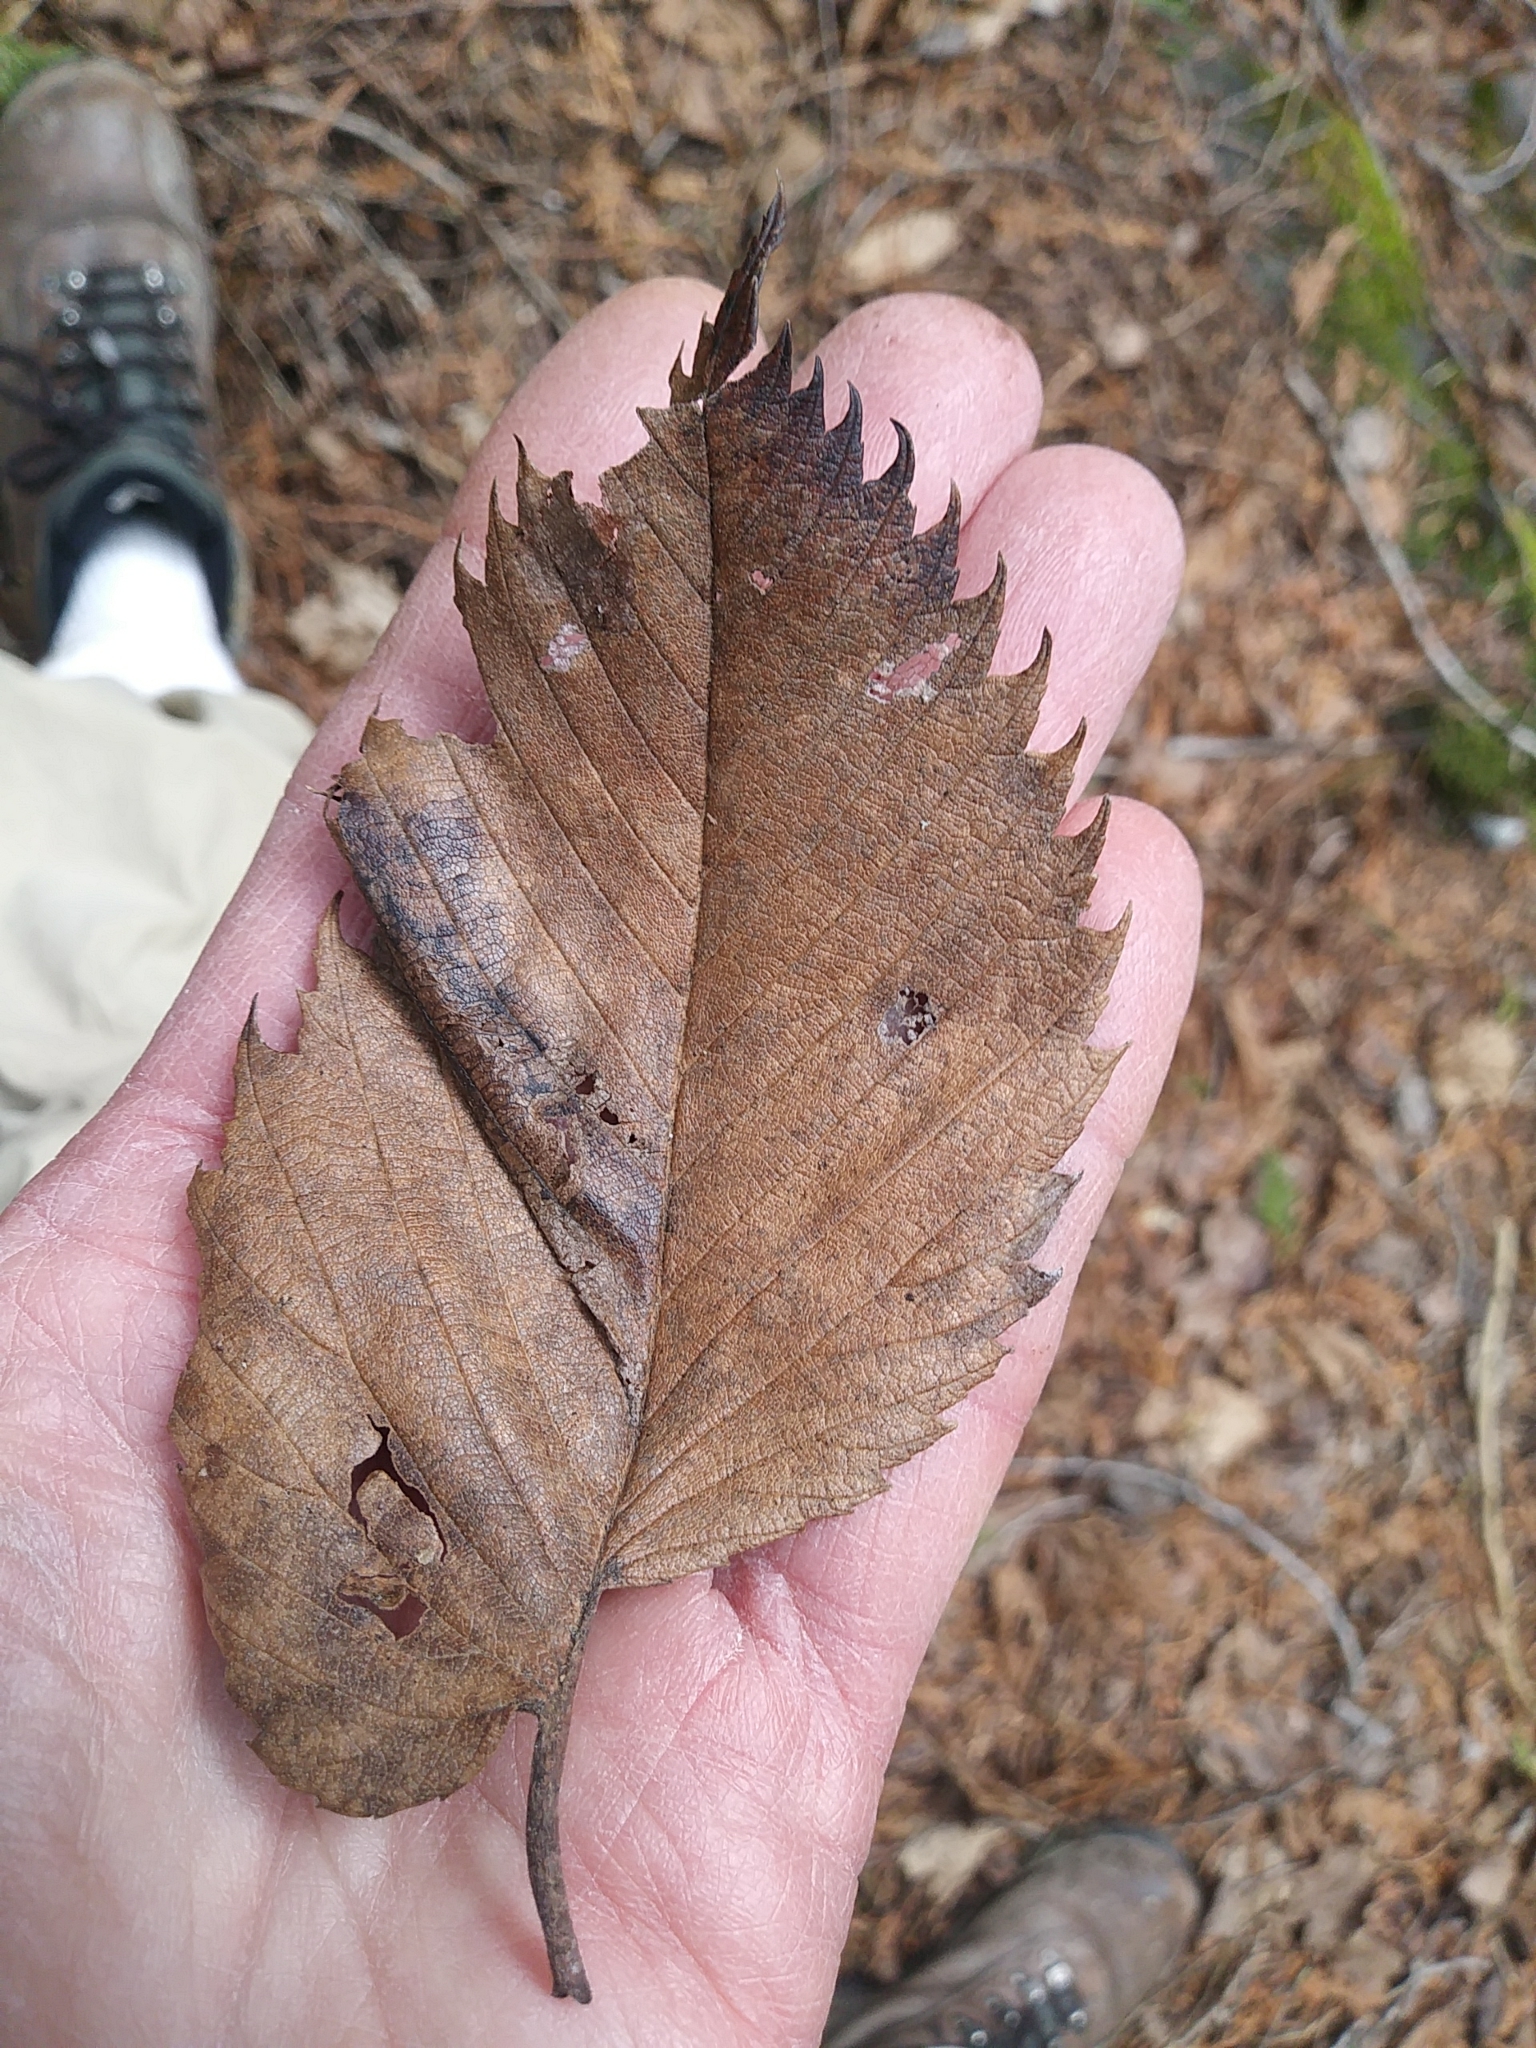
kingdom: Plantae
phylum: Tracheophyta
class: Magnoliopsida
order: Rosales
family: Ulmaceae
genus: Ulmus
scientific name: Ulmus americana
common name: American elm
